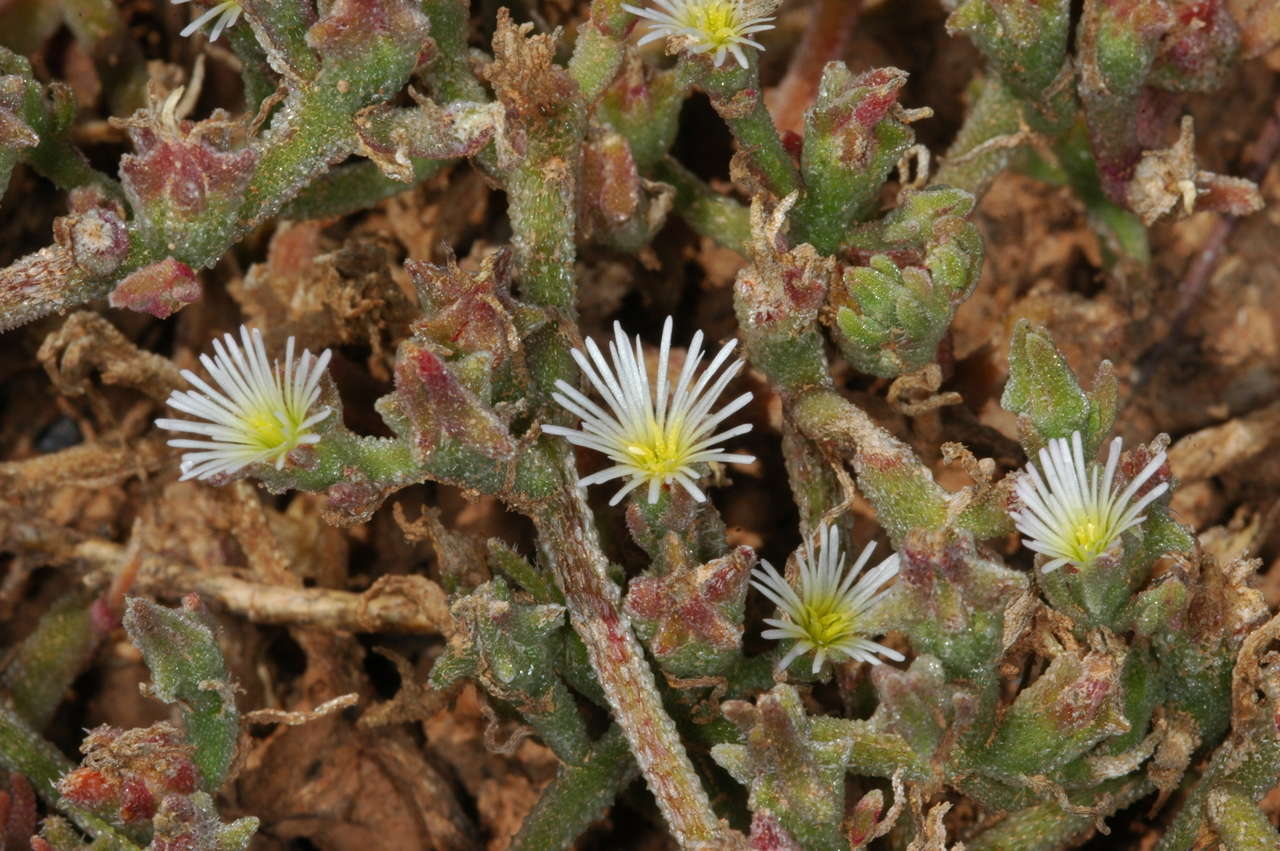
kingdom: Plantae
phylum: Tracheophyta
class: Magnoliopsida
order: Caryophyllales
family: Aizoaceae
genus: Mesembryanthemum
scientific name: Mesembryanthemum nodiflorum
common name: Slenderleaf iceplant
